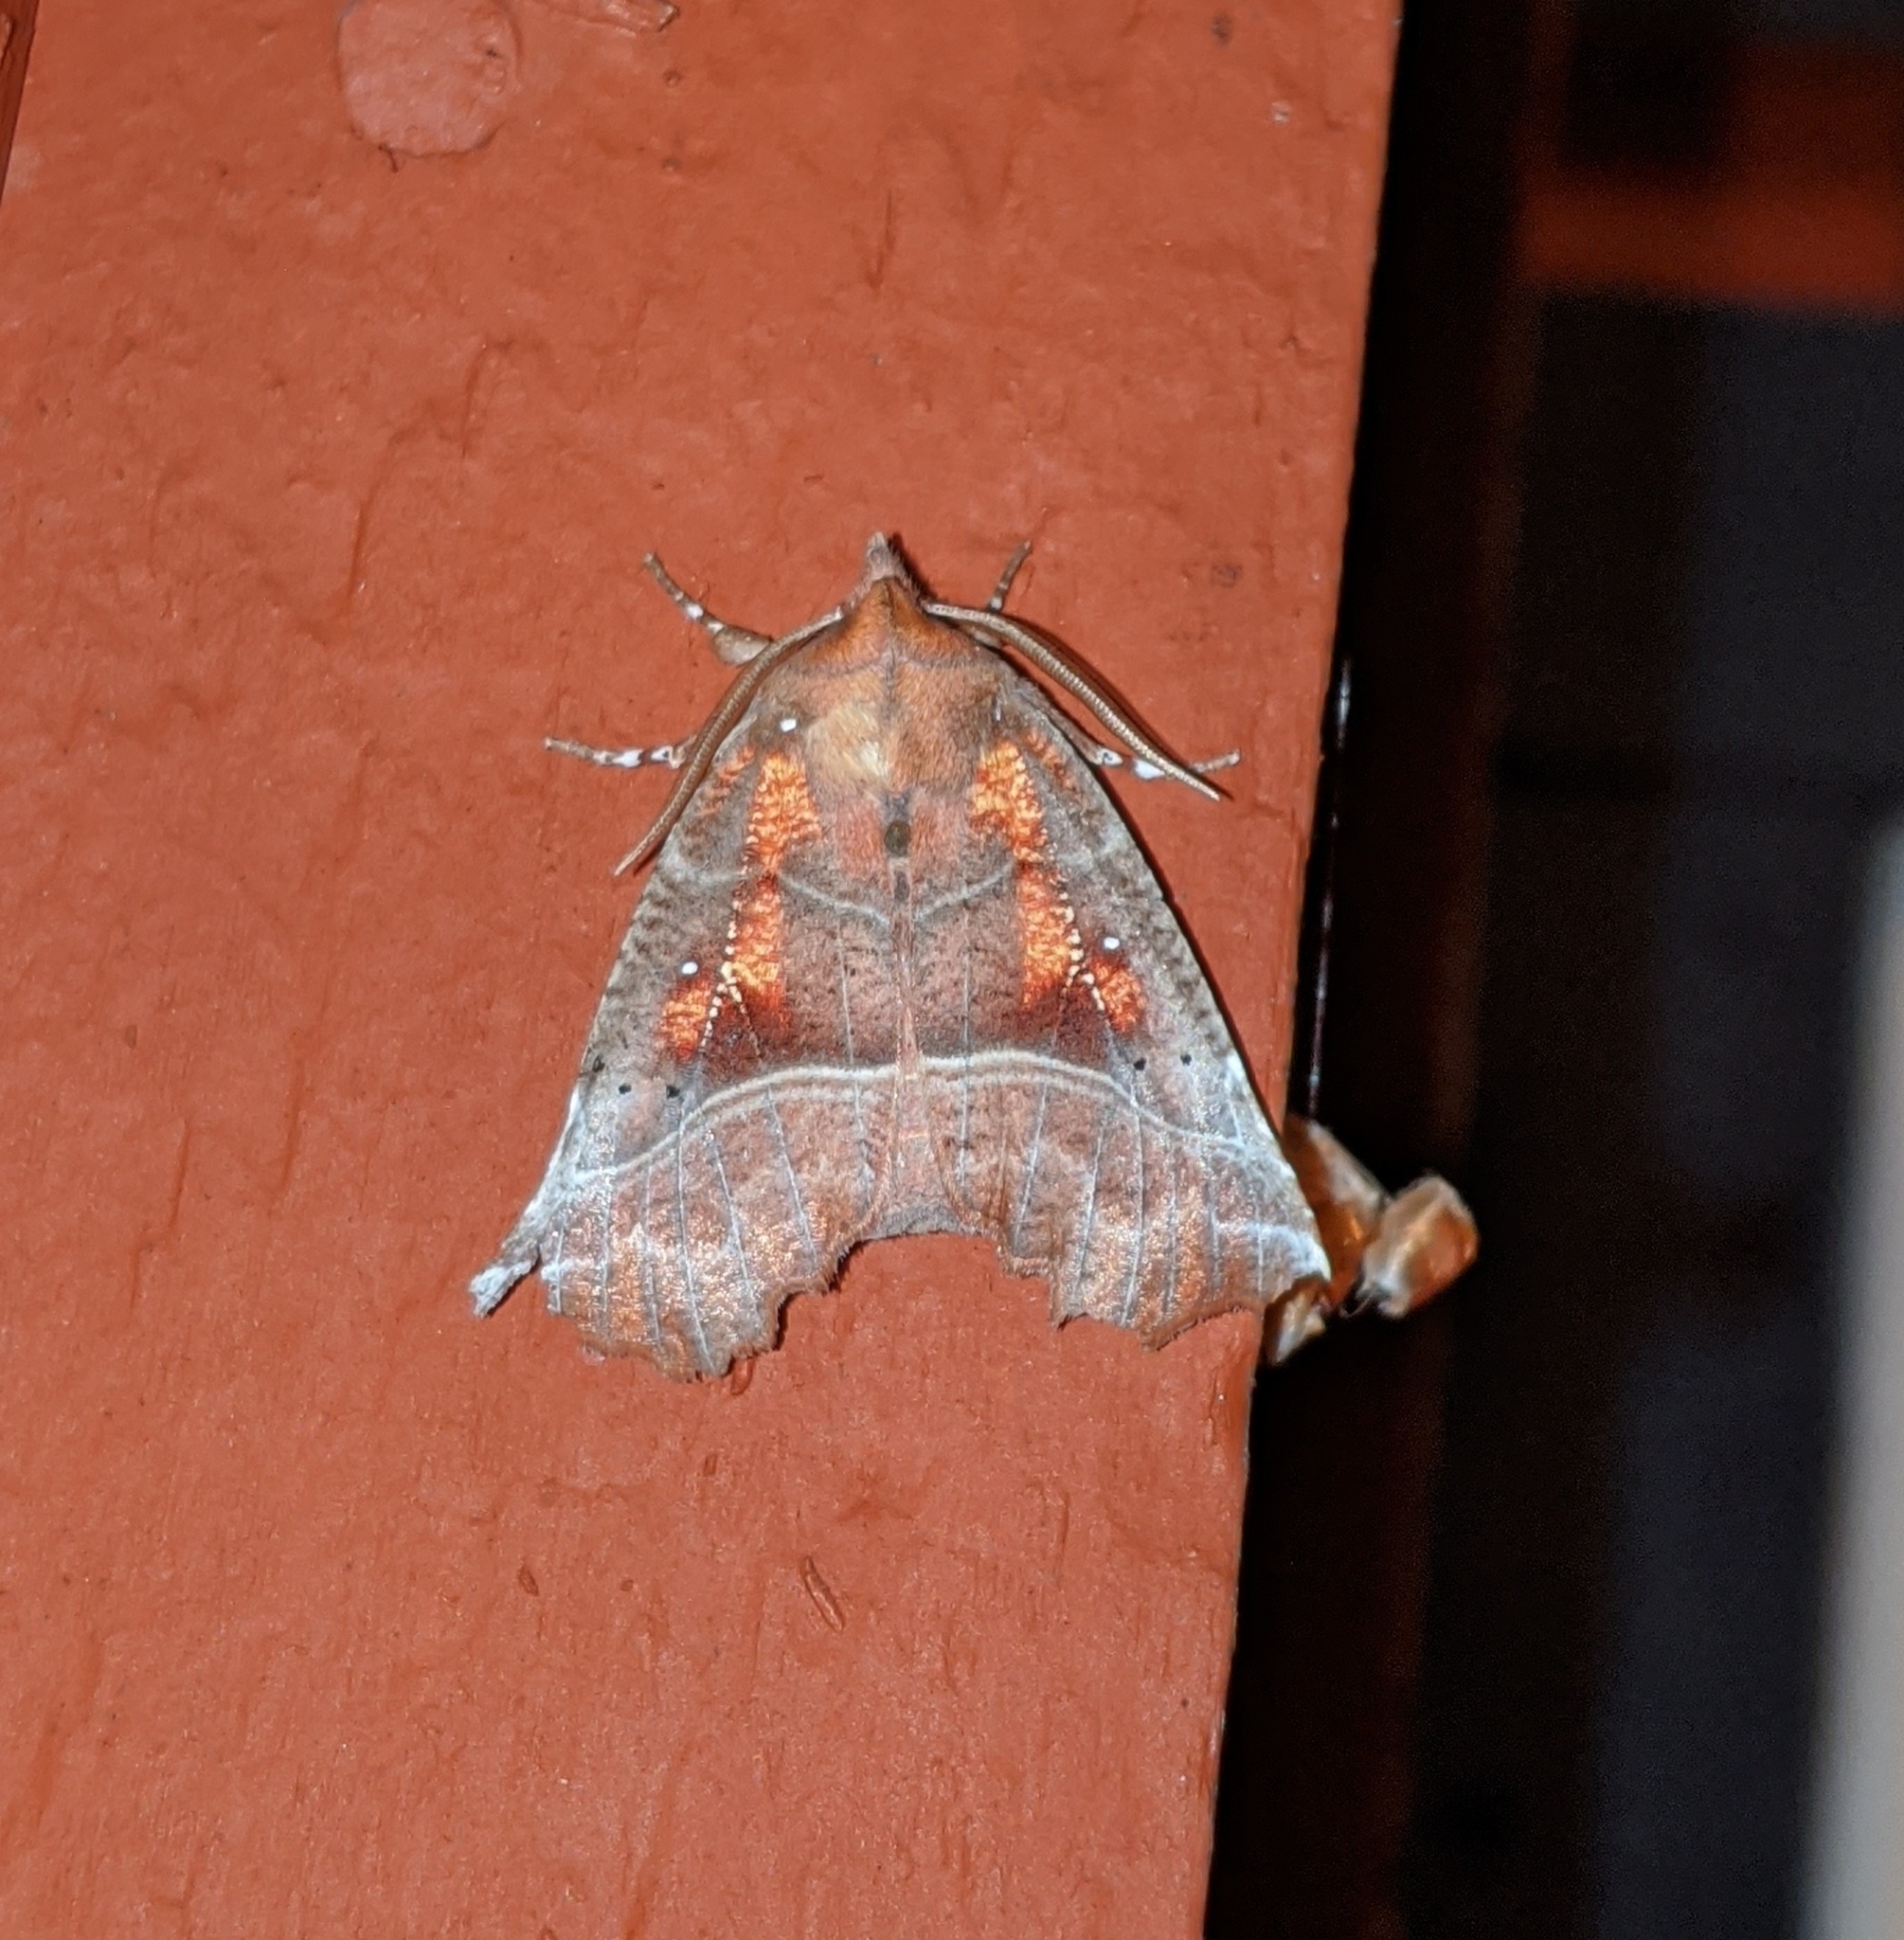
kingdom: Animalia
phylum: Arthropoda
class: Insecta
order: Lepidoptera
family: Erebidae
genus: Scoliopteryx
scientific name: Scoliopteryx libatrix
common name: Herald
